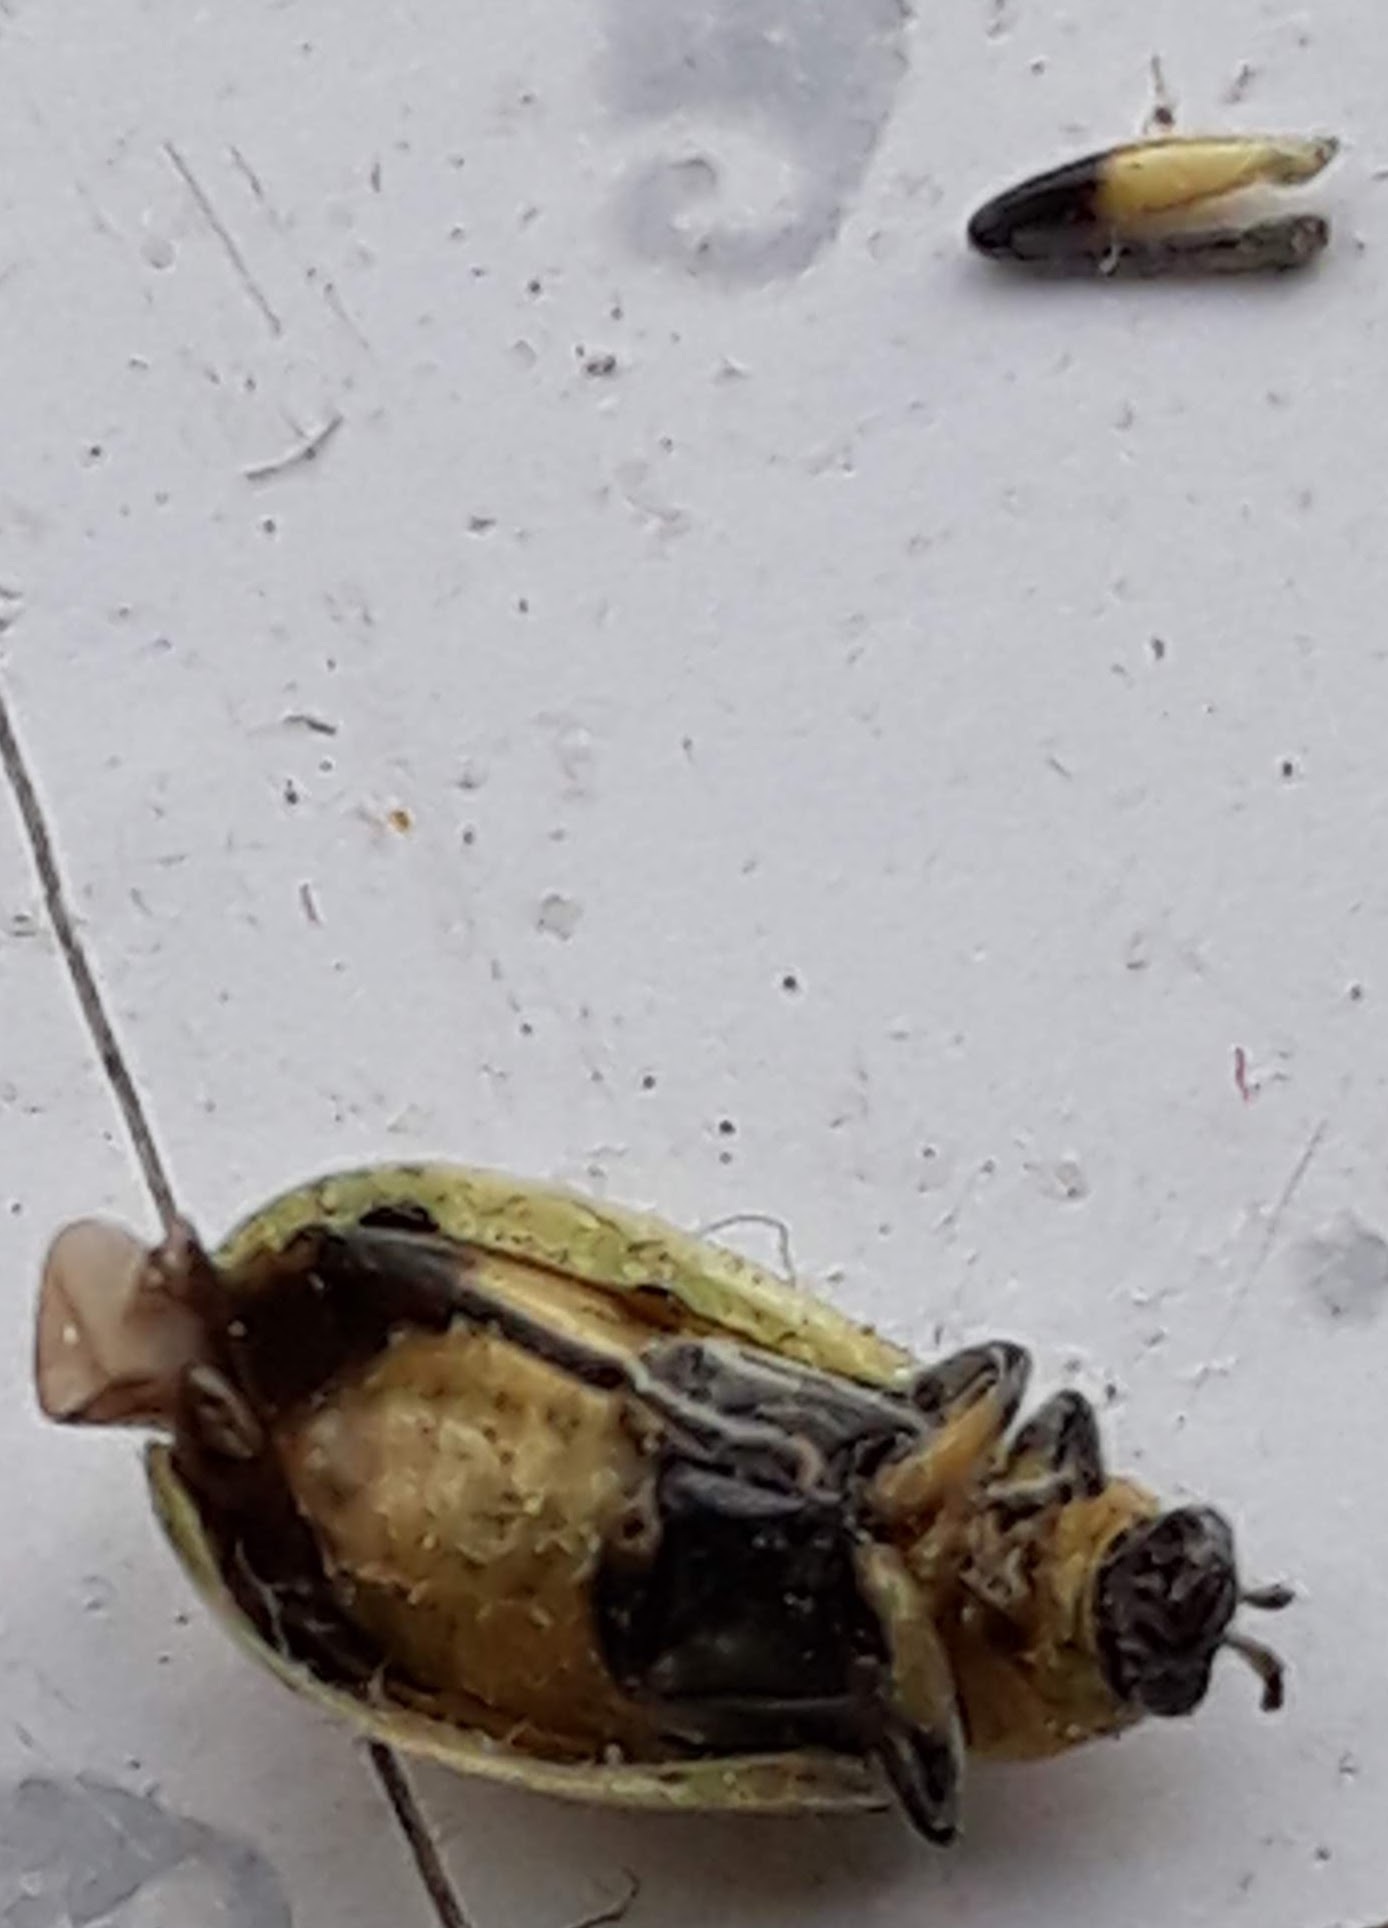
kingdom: Animalia
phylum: Arthropoda
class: Insecta
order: Coleoptera
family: Chrysomelidae
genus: Diabrotica
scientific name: Diabrotica undecimpunctata
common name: Spotted cucumber beetle
